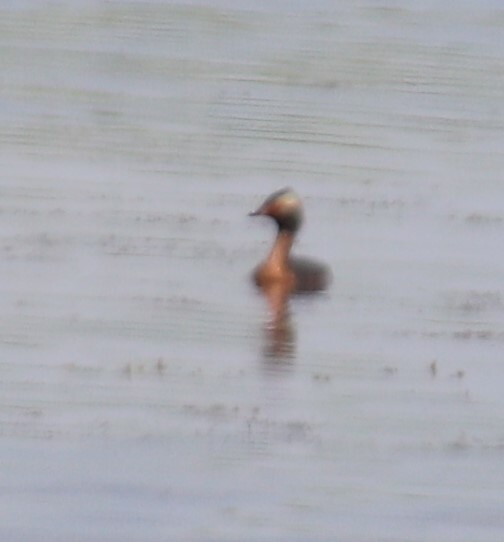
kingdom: Animalia
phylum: Chordata
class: Aves
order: Podicipediformes
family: Podicipedidae
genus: Podiceps
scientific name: Podiceps auritus
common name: Horned grebe
